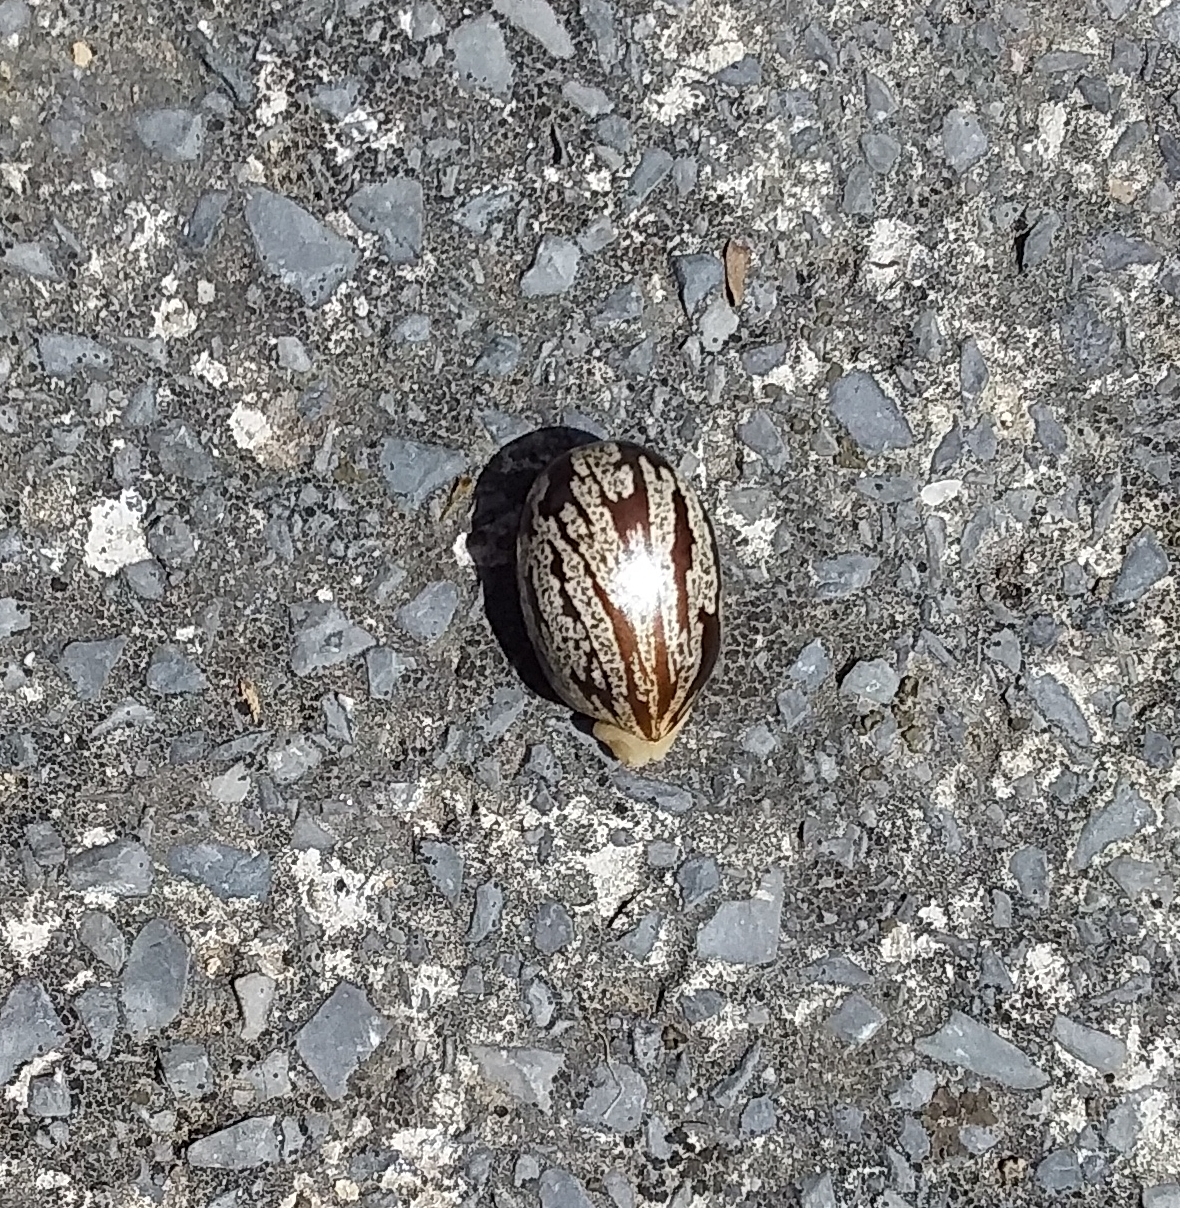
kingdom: Plantae
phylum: Tracheophyta
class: Magnoliopsida
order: Malpighiales
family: Euphorbiaceae
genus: Ricinus
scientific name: Ricinus communis
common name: Castor-oil-plant
